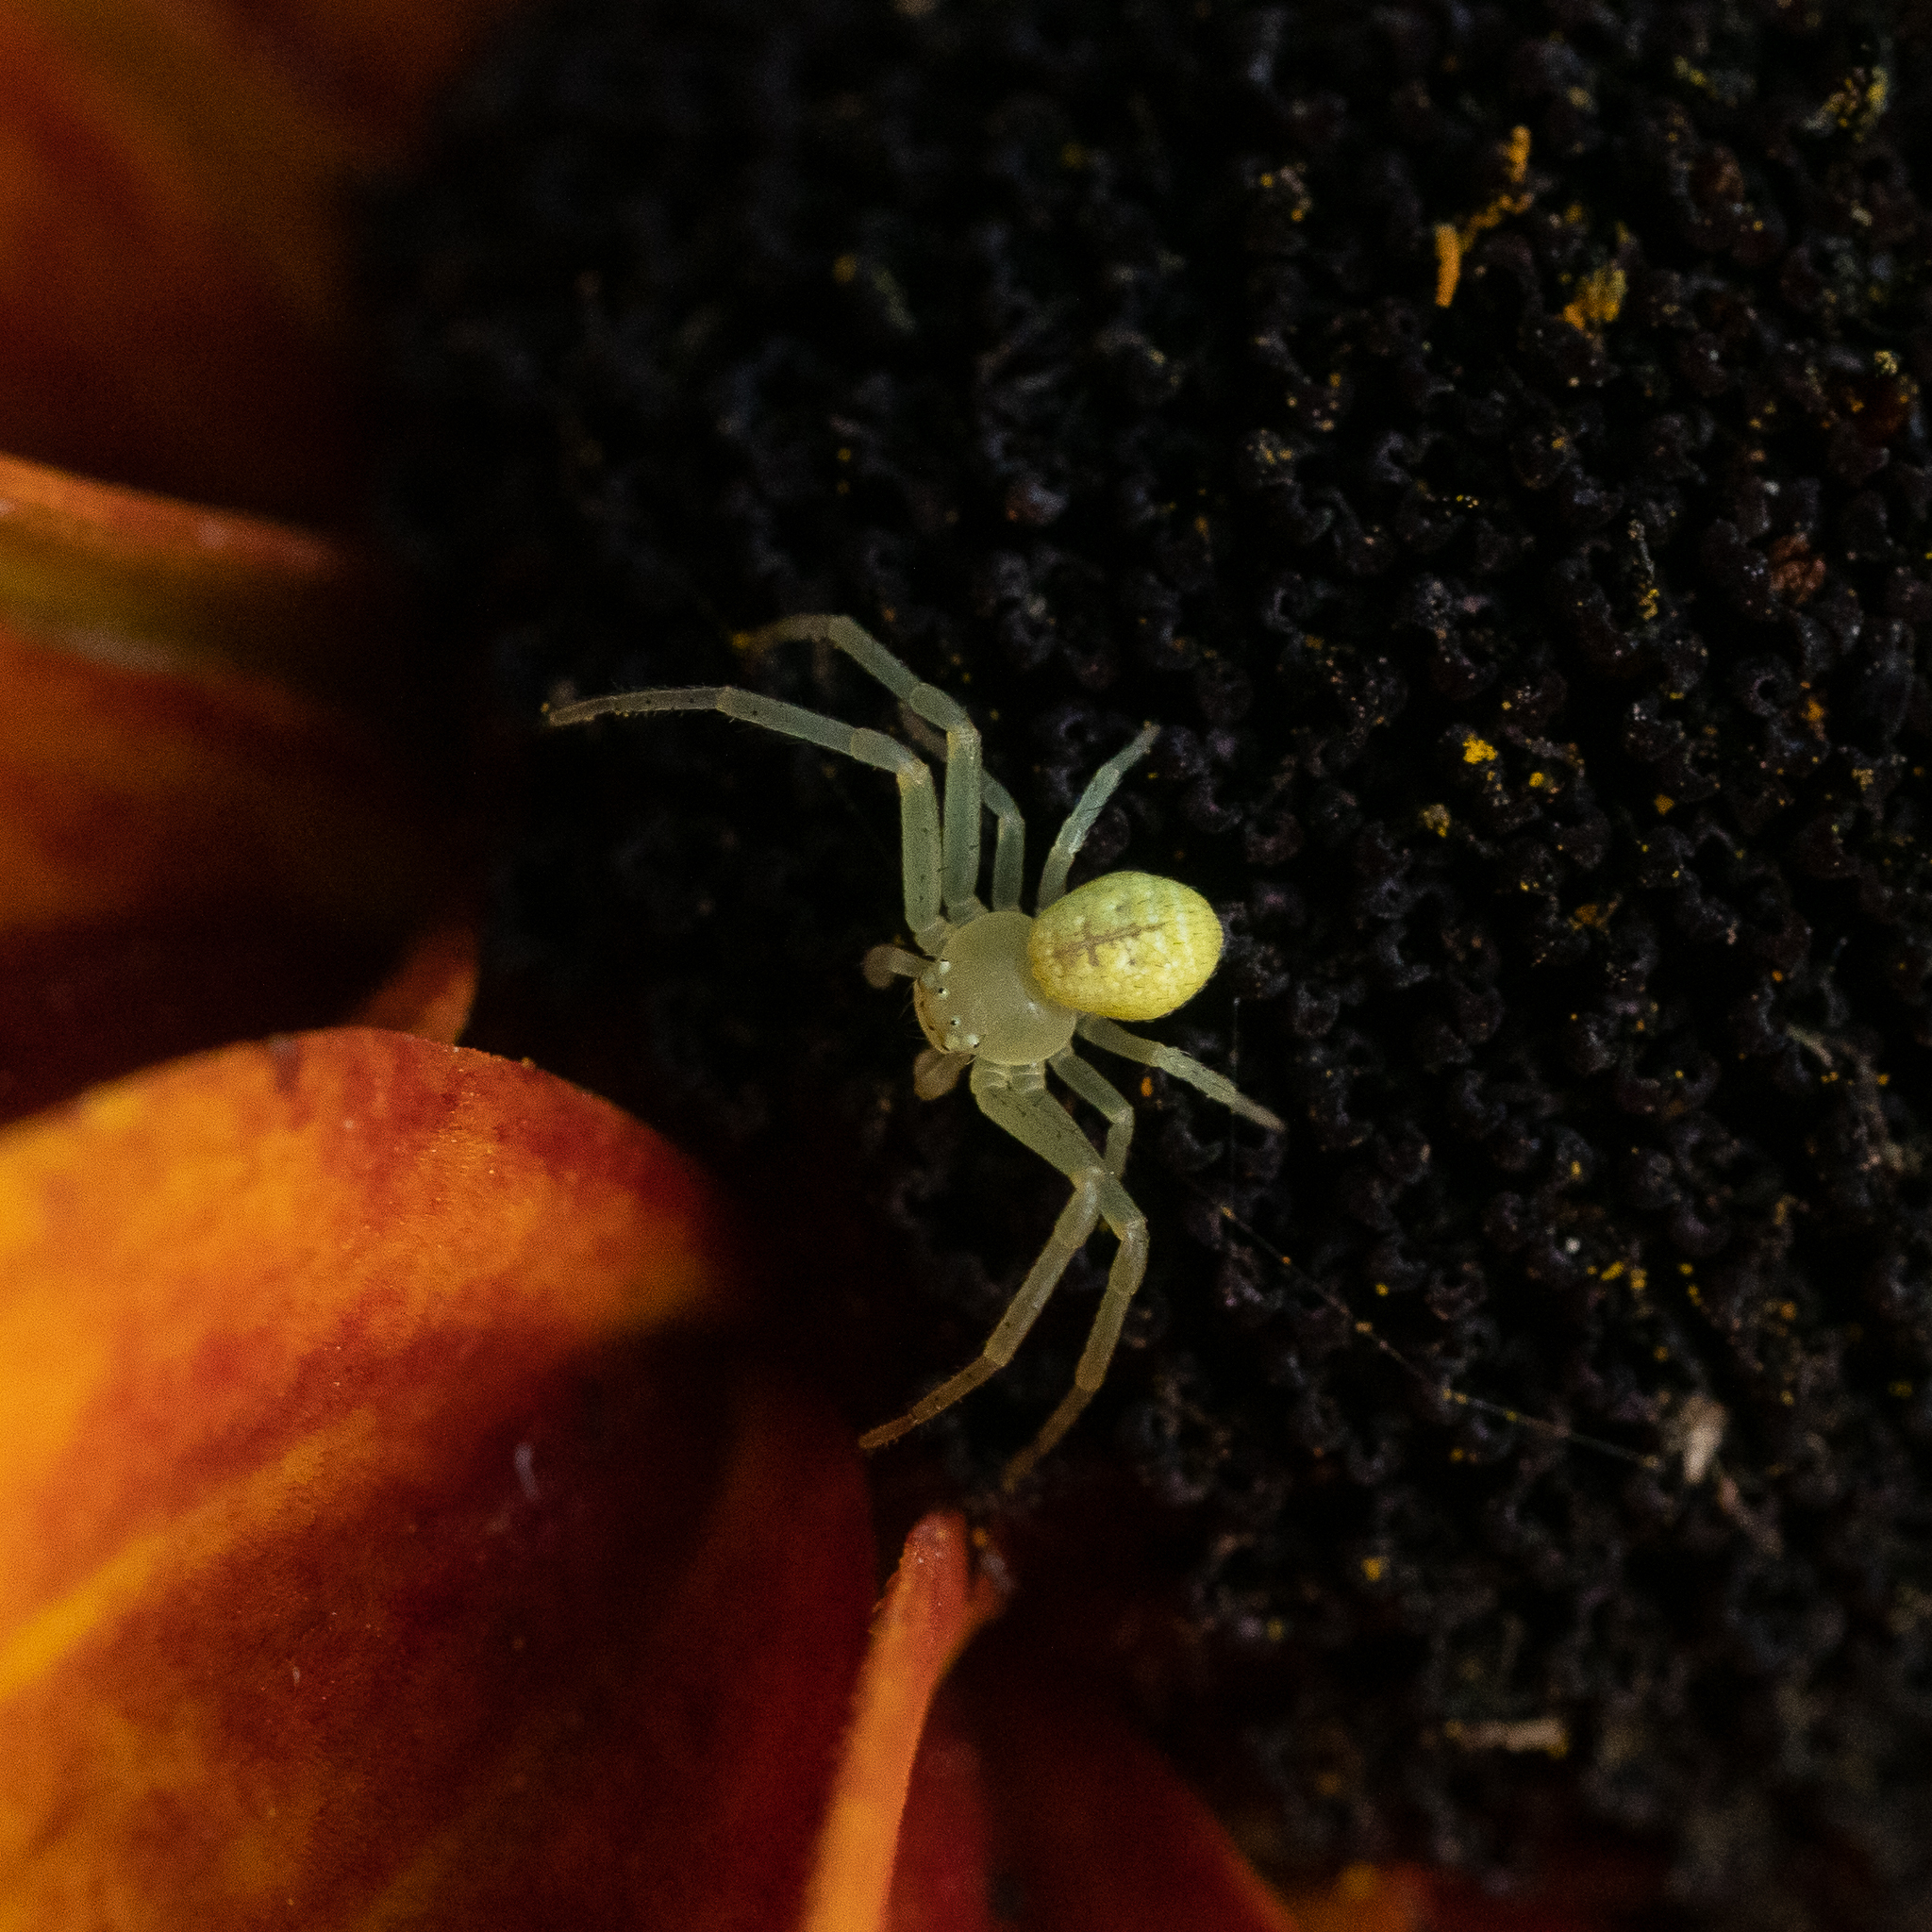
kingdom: Animalia
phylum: Arthropoda
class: Arachnida
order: Araneae
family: Thomisidae
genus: Ebrechtella
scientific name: Ebrechtella tricuspidata
